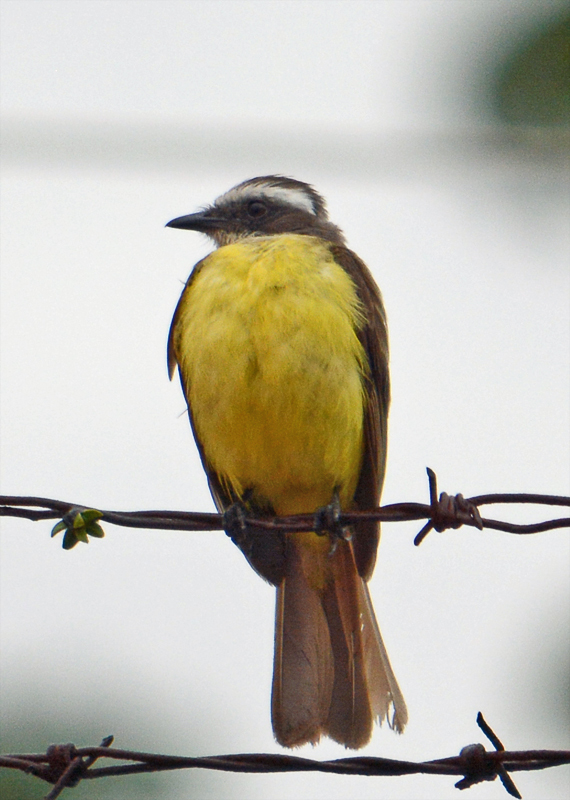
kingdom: Animalia
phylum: Chordata
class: Aves
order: Passeriformes
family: Tyrannidae
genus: Myiozetetes
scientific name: Myiozetetes similis
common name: Social flycatcher
